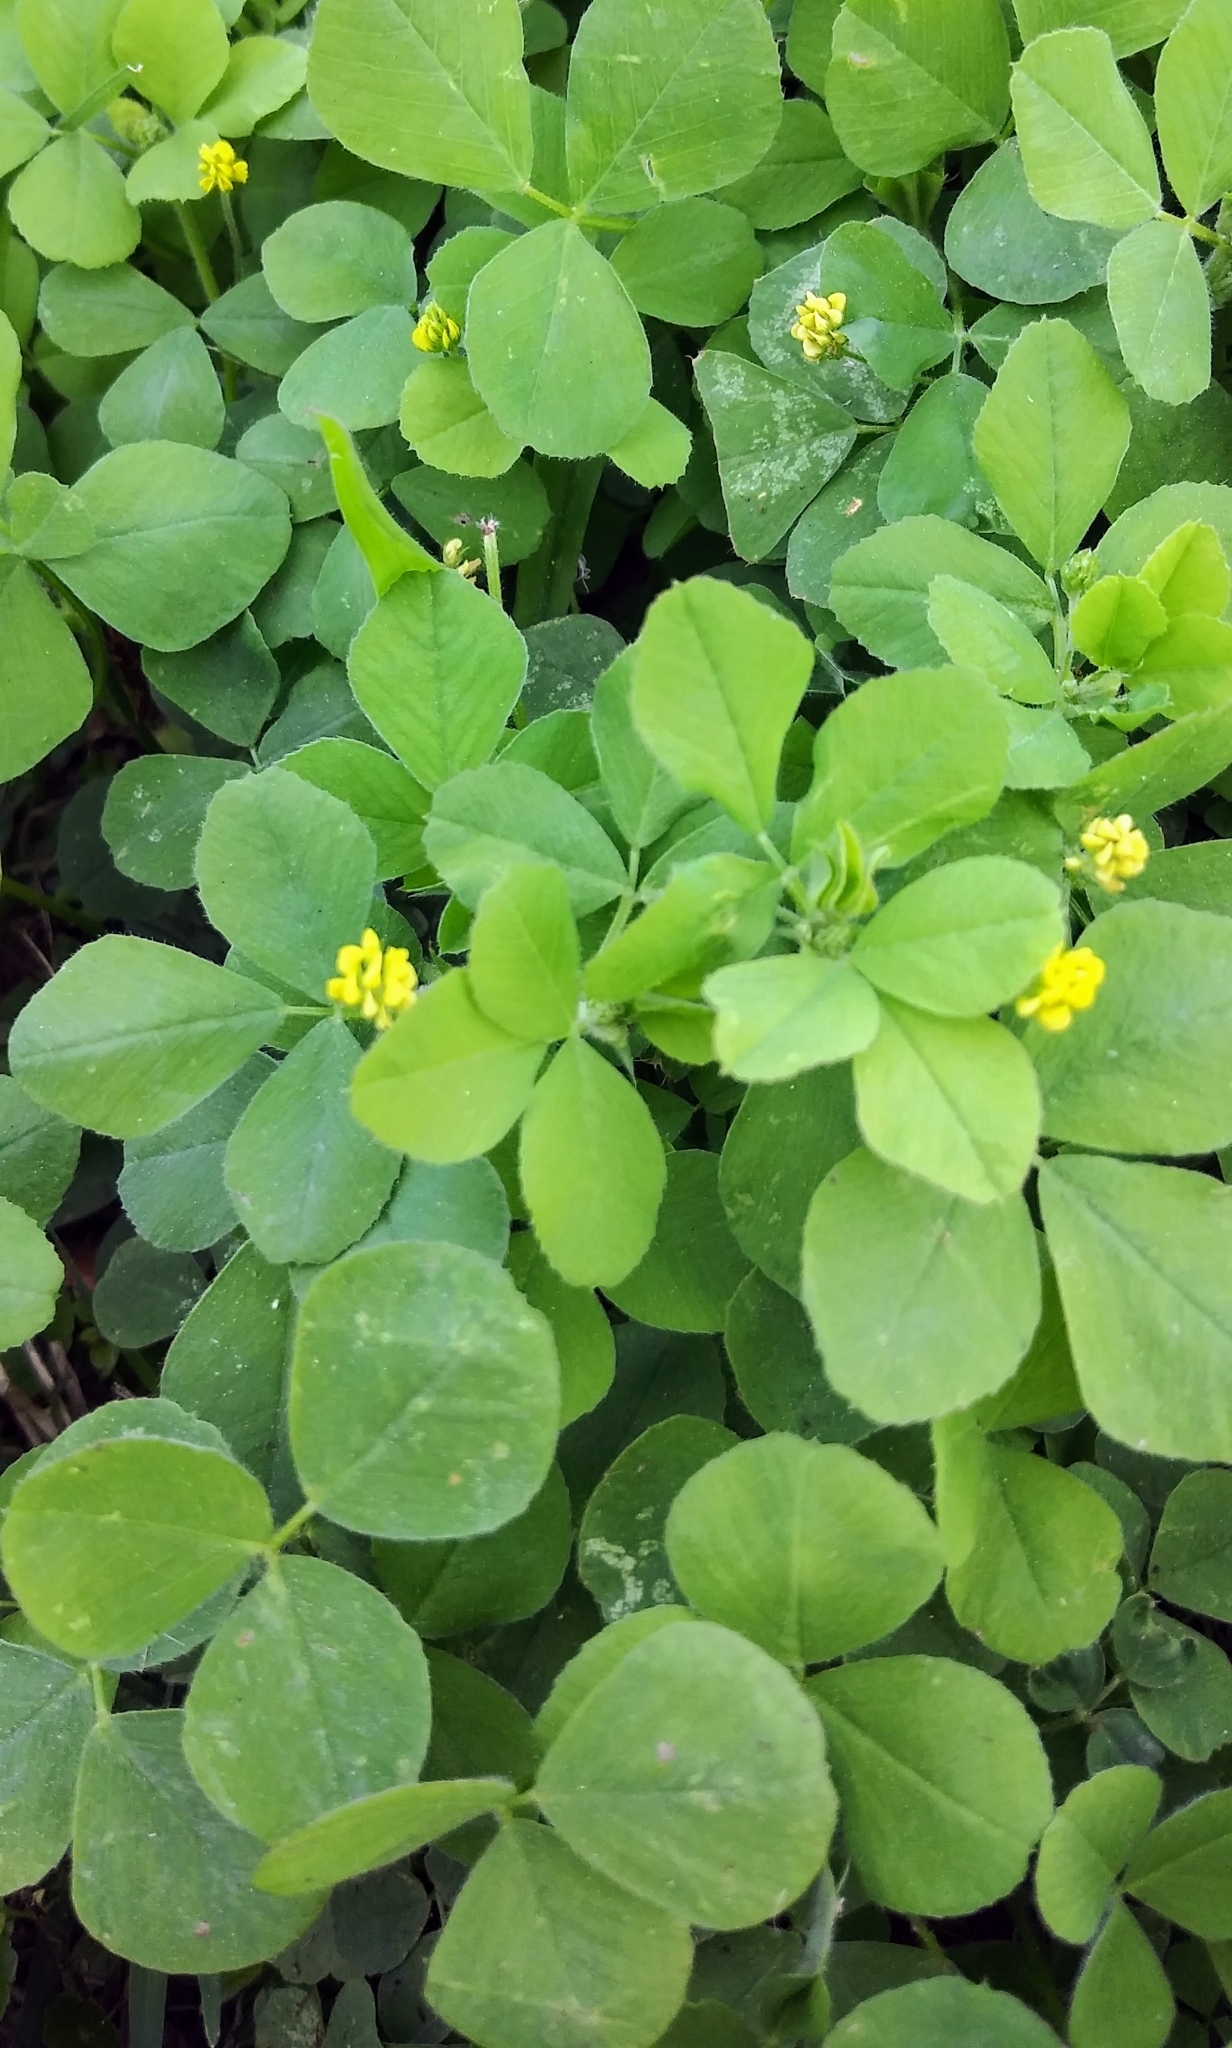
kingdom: Plantae
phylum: Tracheophyta
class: Magnoliopsida
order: Fabales
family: Fabaceae
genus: Medicago
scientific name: Medicago lupulina
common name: Black medick
